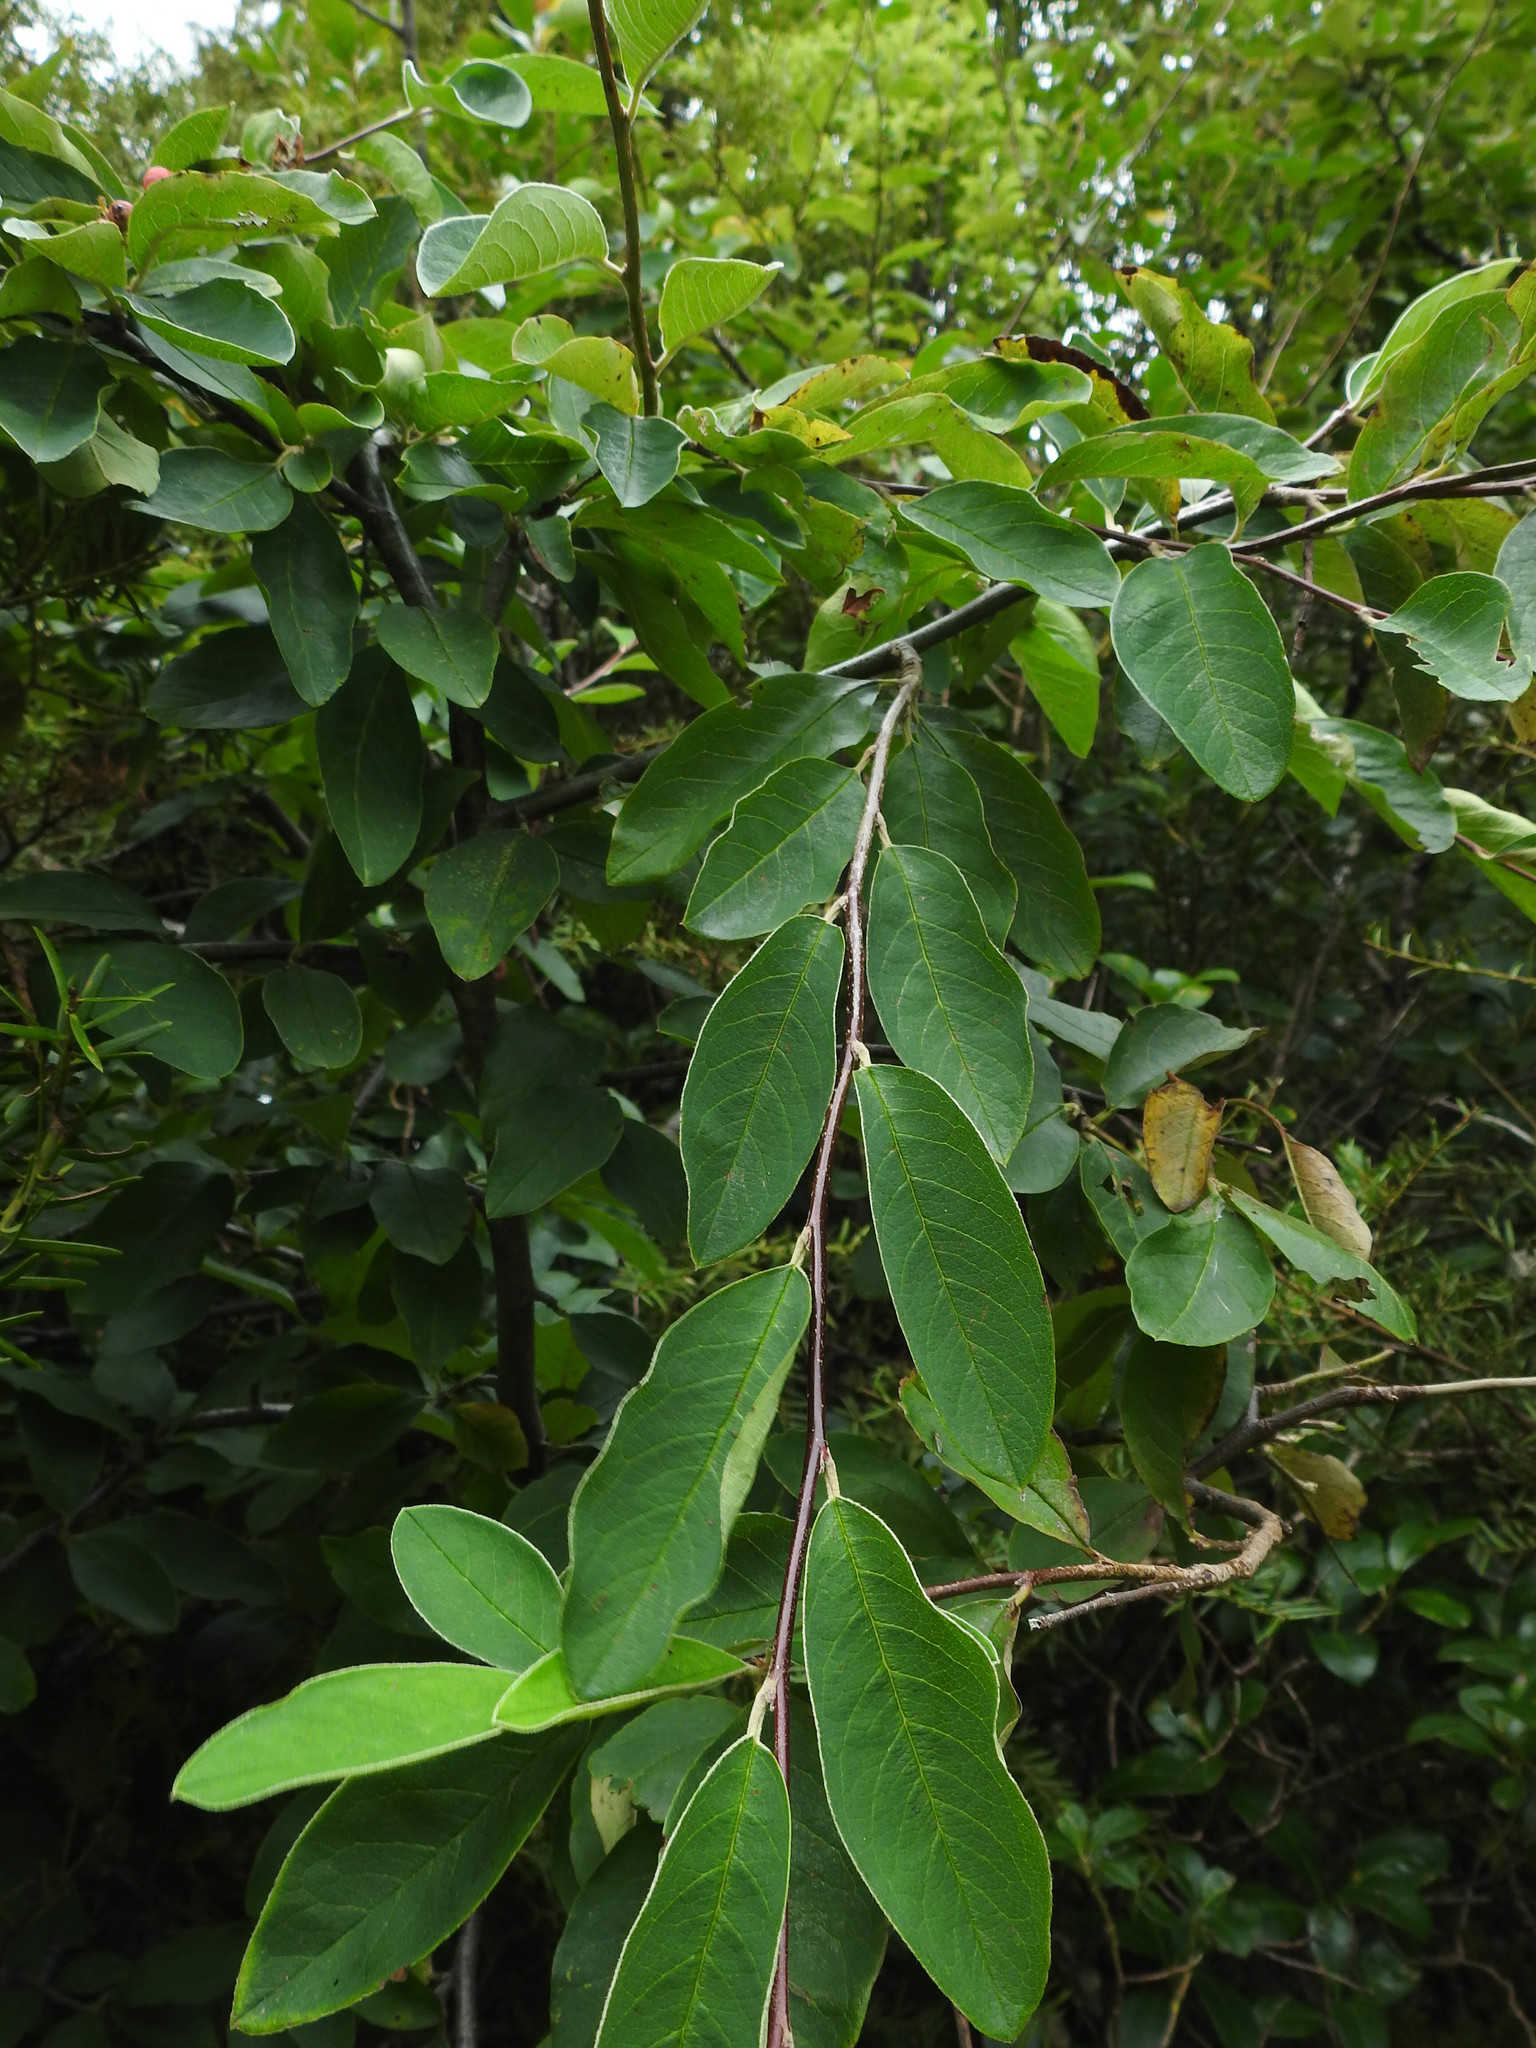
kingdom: Plantae
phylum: Tracheophyta
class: Magnoliopsida
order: Rosales
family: Rosaceae
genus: Cotoneaster
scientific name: Cotoneaster frigidus
